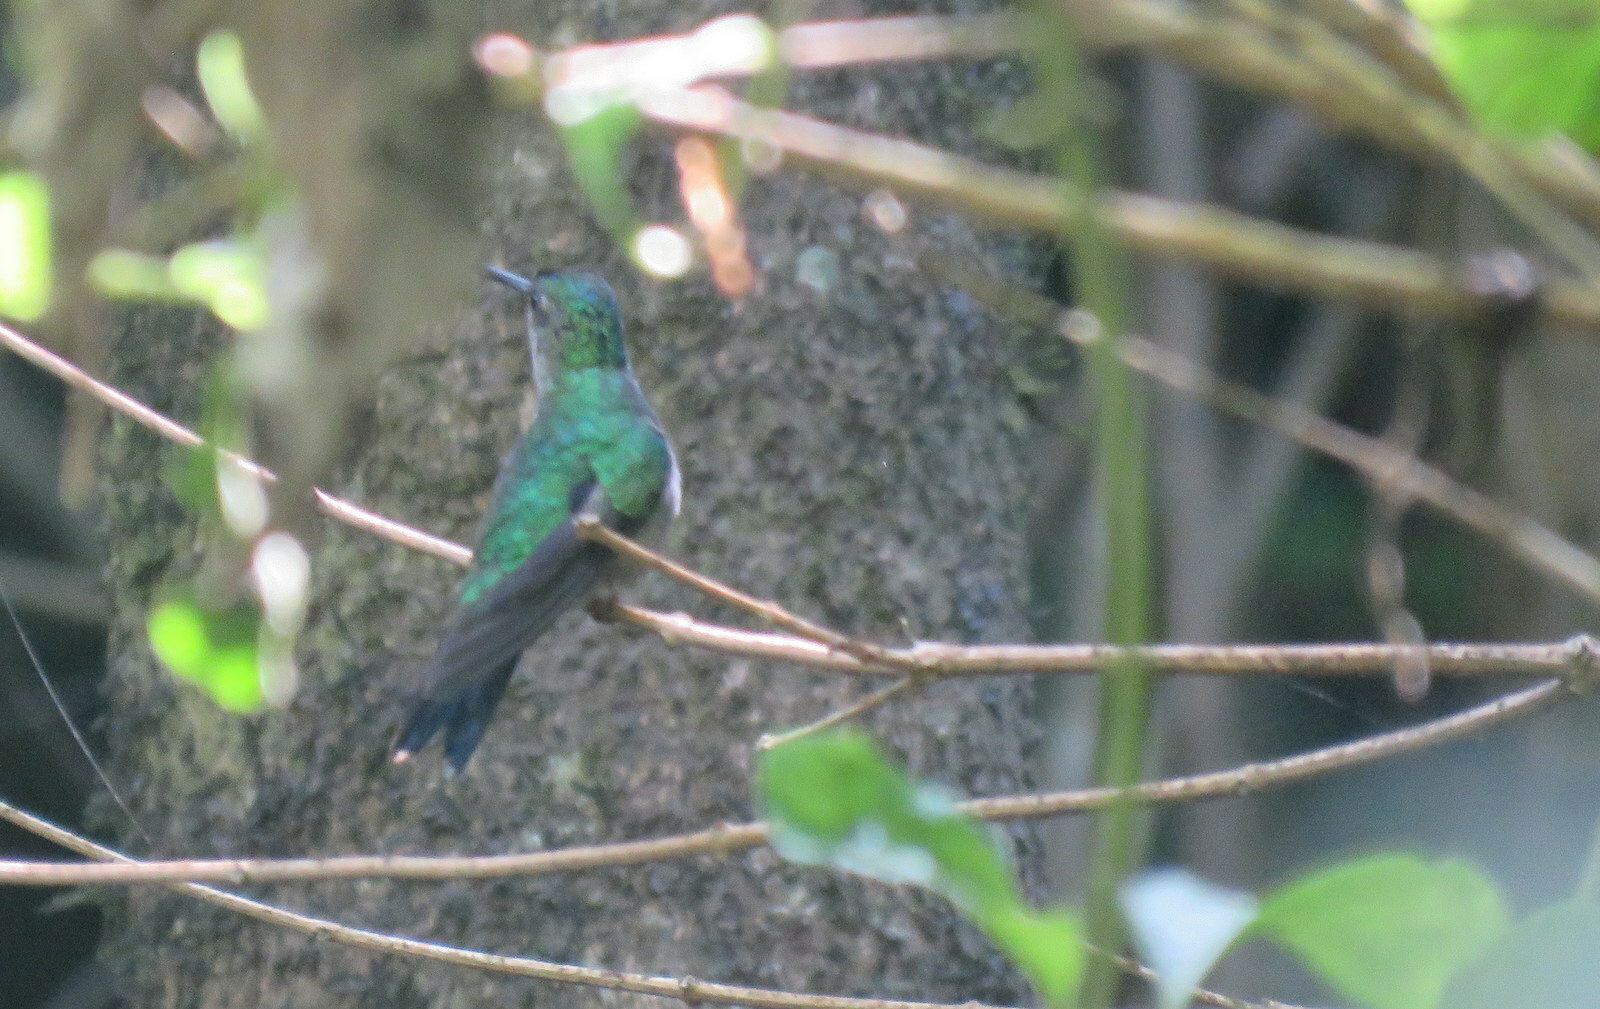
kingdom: Animalia
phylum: Chordata
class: Aves
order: Apodiformes
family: Trochilidae
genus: Thalurania
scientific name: Thalurania glaucopis
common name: Violet-capped woodnymph
